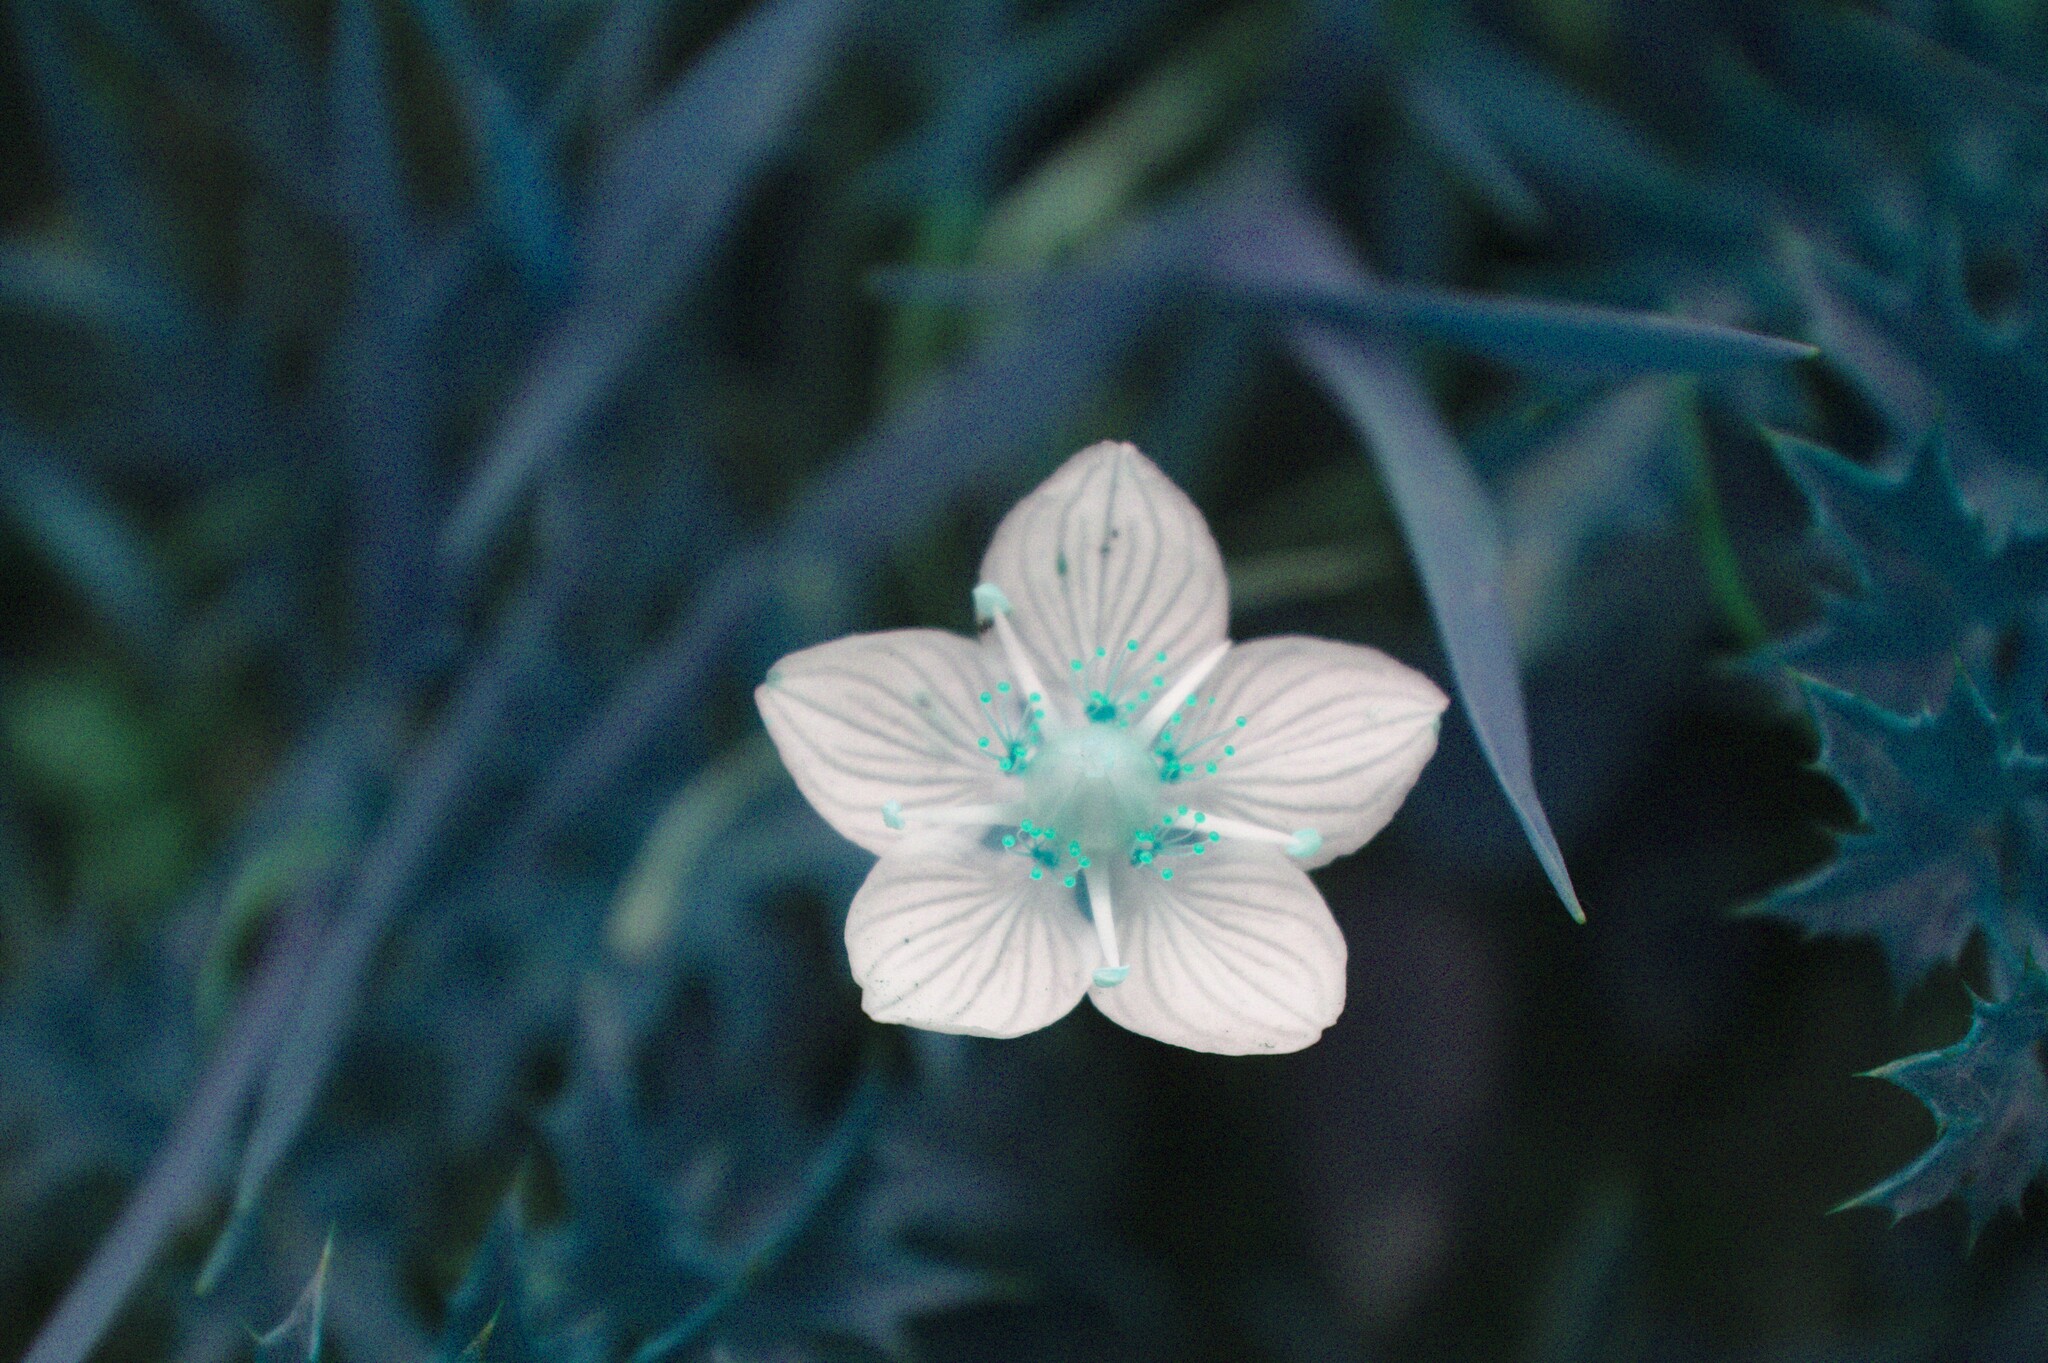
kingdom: Plantae
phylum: Tracheophyta
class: Magnoliopsida
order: Celastrales
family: Parnassiaceae
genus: Parnassia
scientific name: Parnassia palustris
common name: Grass-of-parnassus
